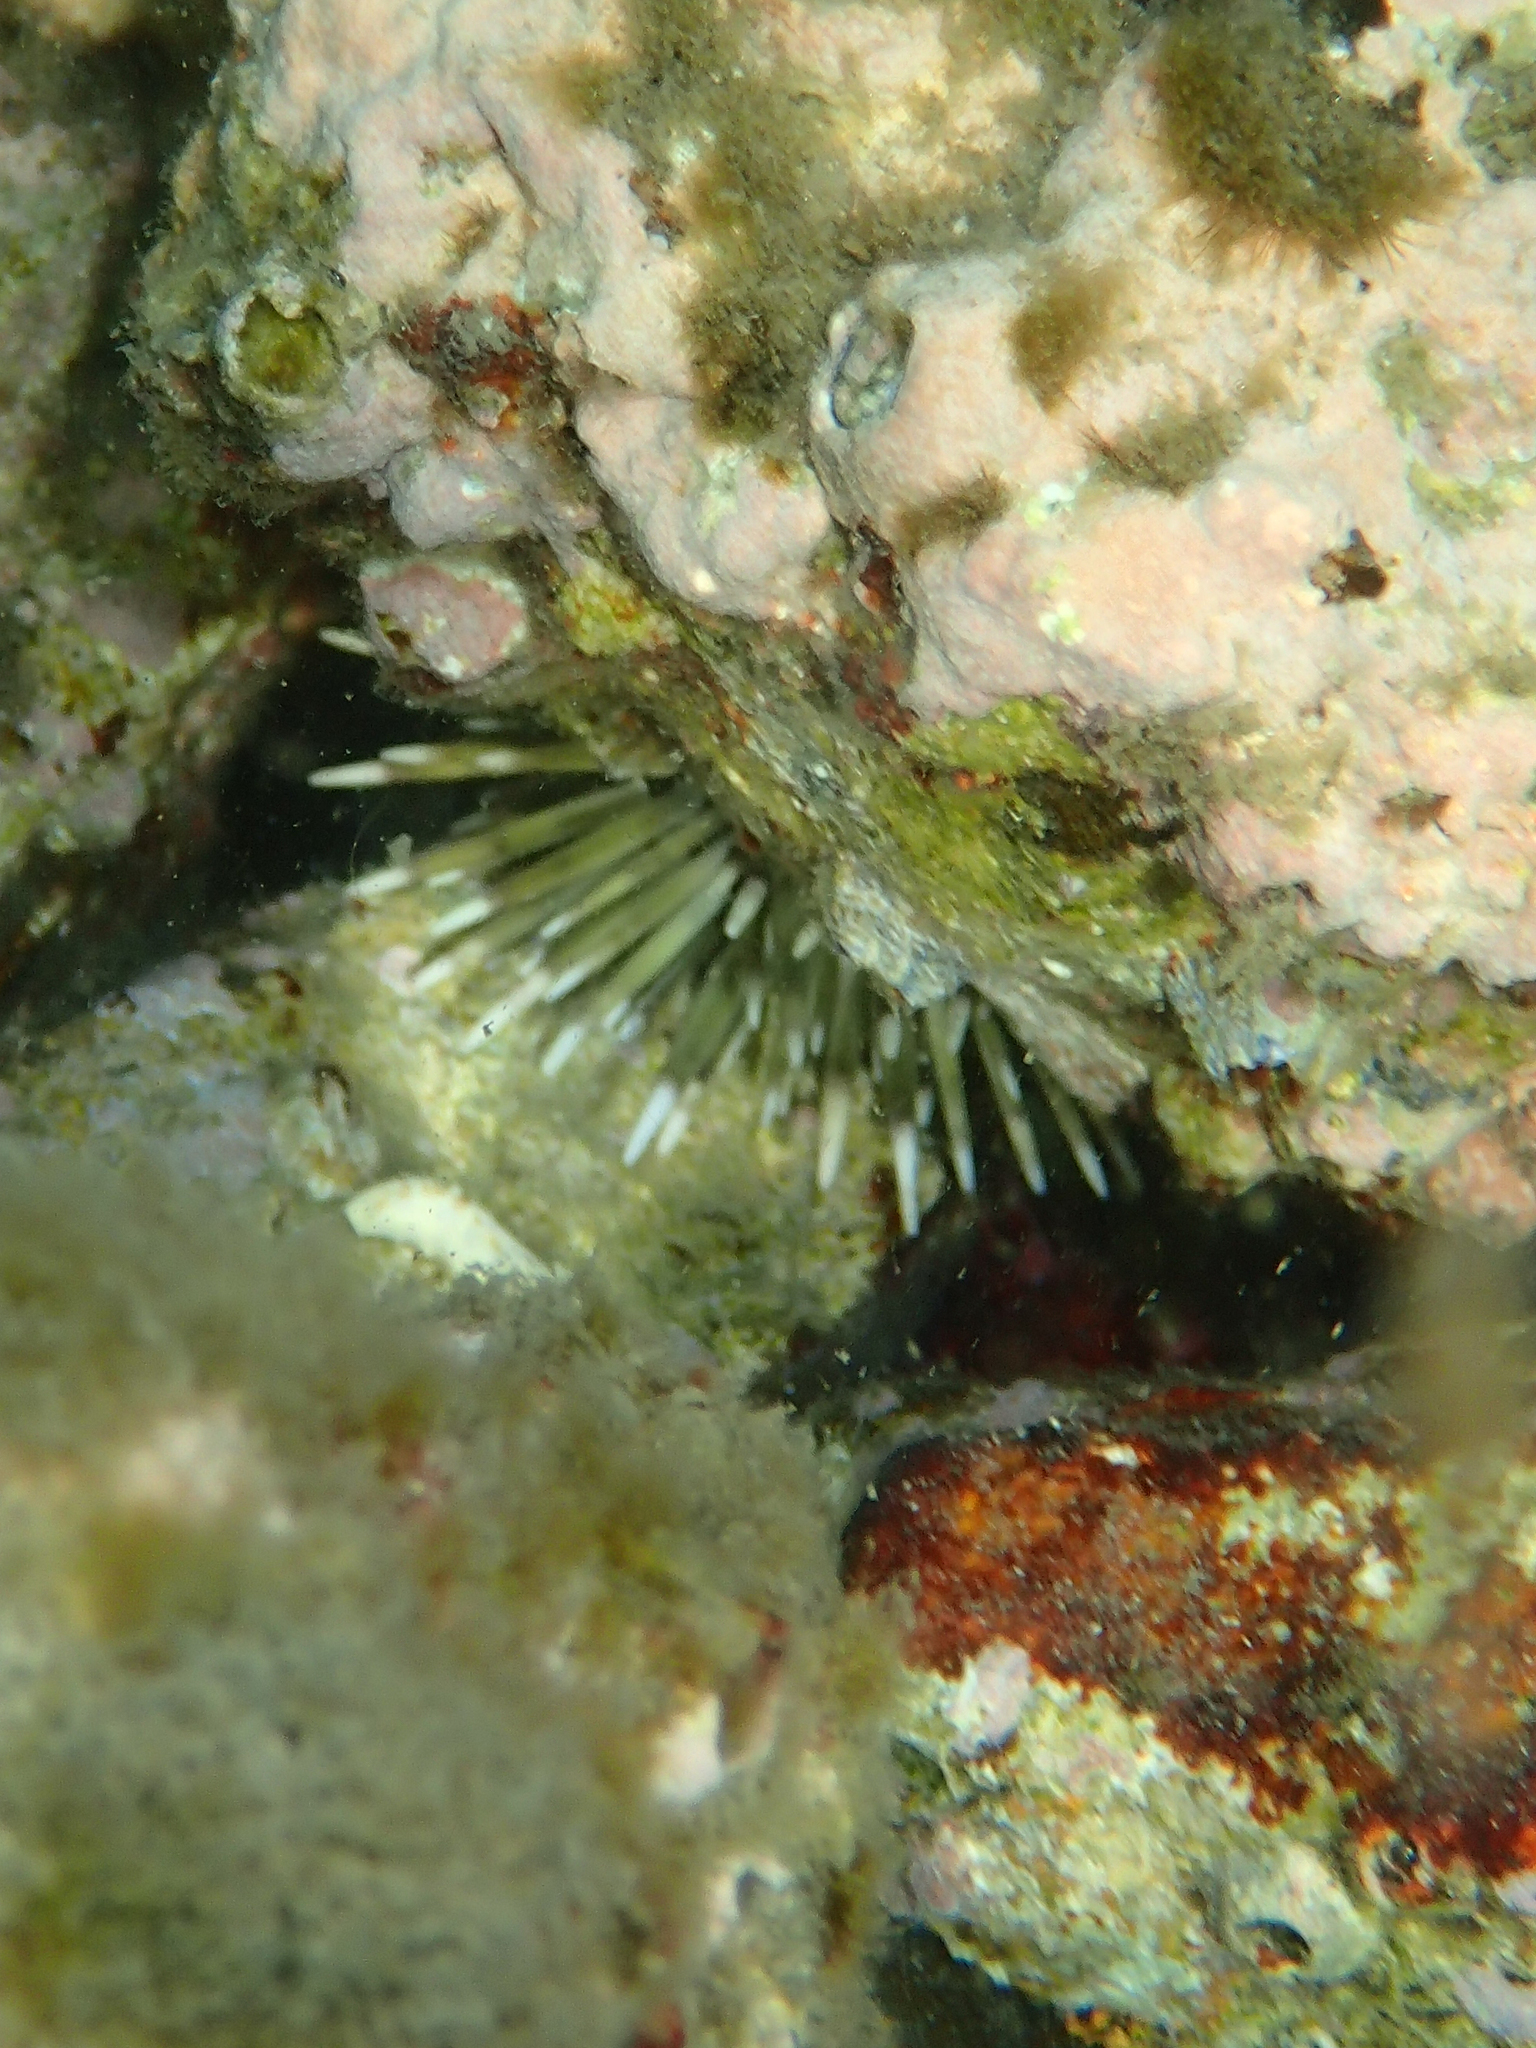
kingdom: Animalia
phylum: Echinodermata
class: Echinoidea
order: Camarodonta
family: Echinometridae
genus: Echinometra
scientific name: Echinometra mathaei
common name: Rock-boring urchin
